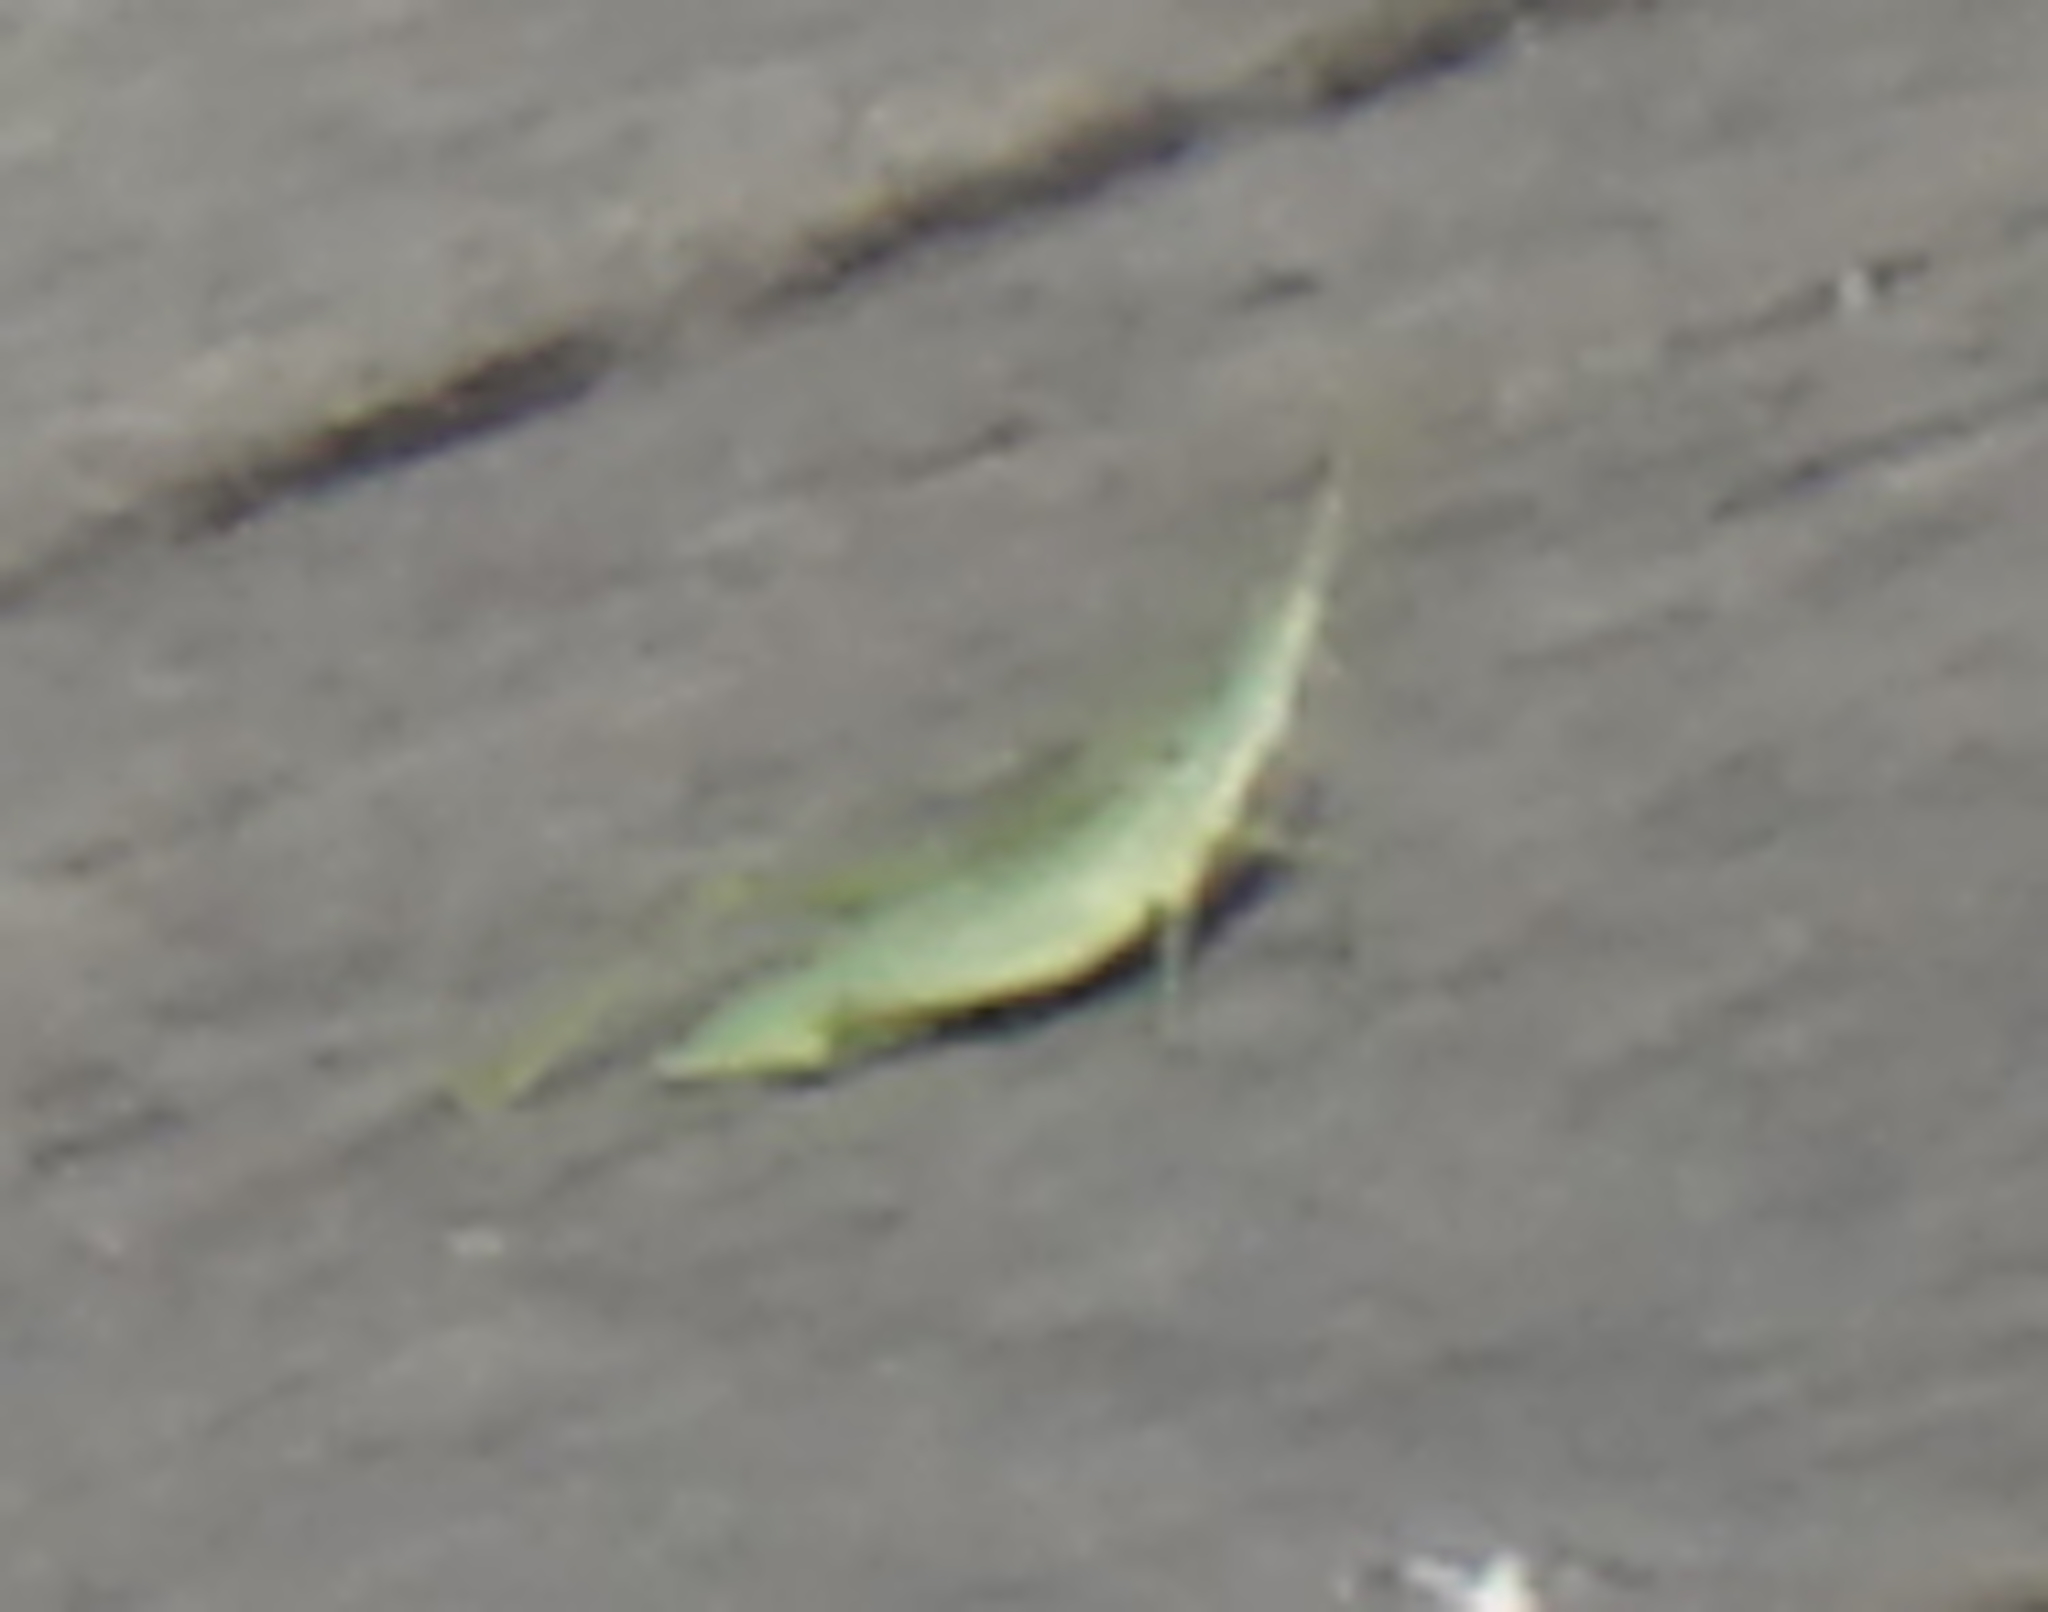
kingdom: Animalia
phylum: Arthropoda
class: Insecta
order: Orthoptera
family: Pyrgomorphidae
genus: Atractomorpha
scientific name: Atractomorpha lata
